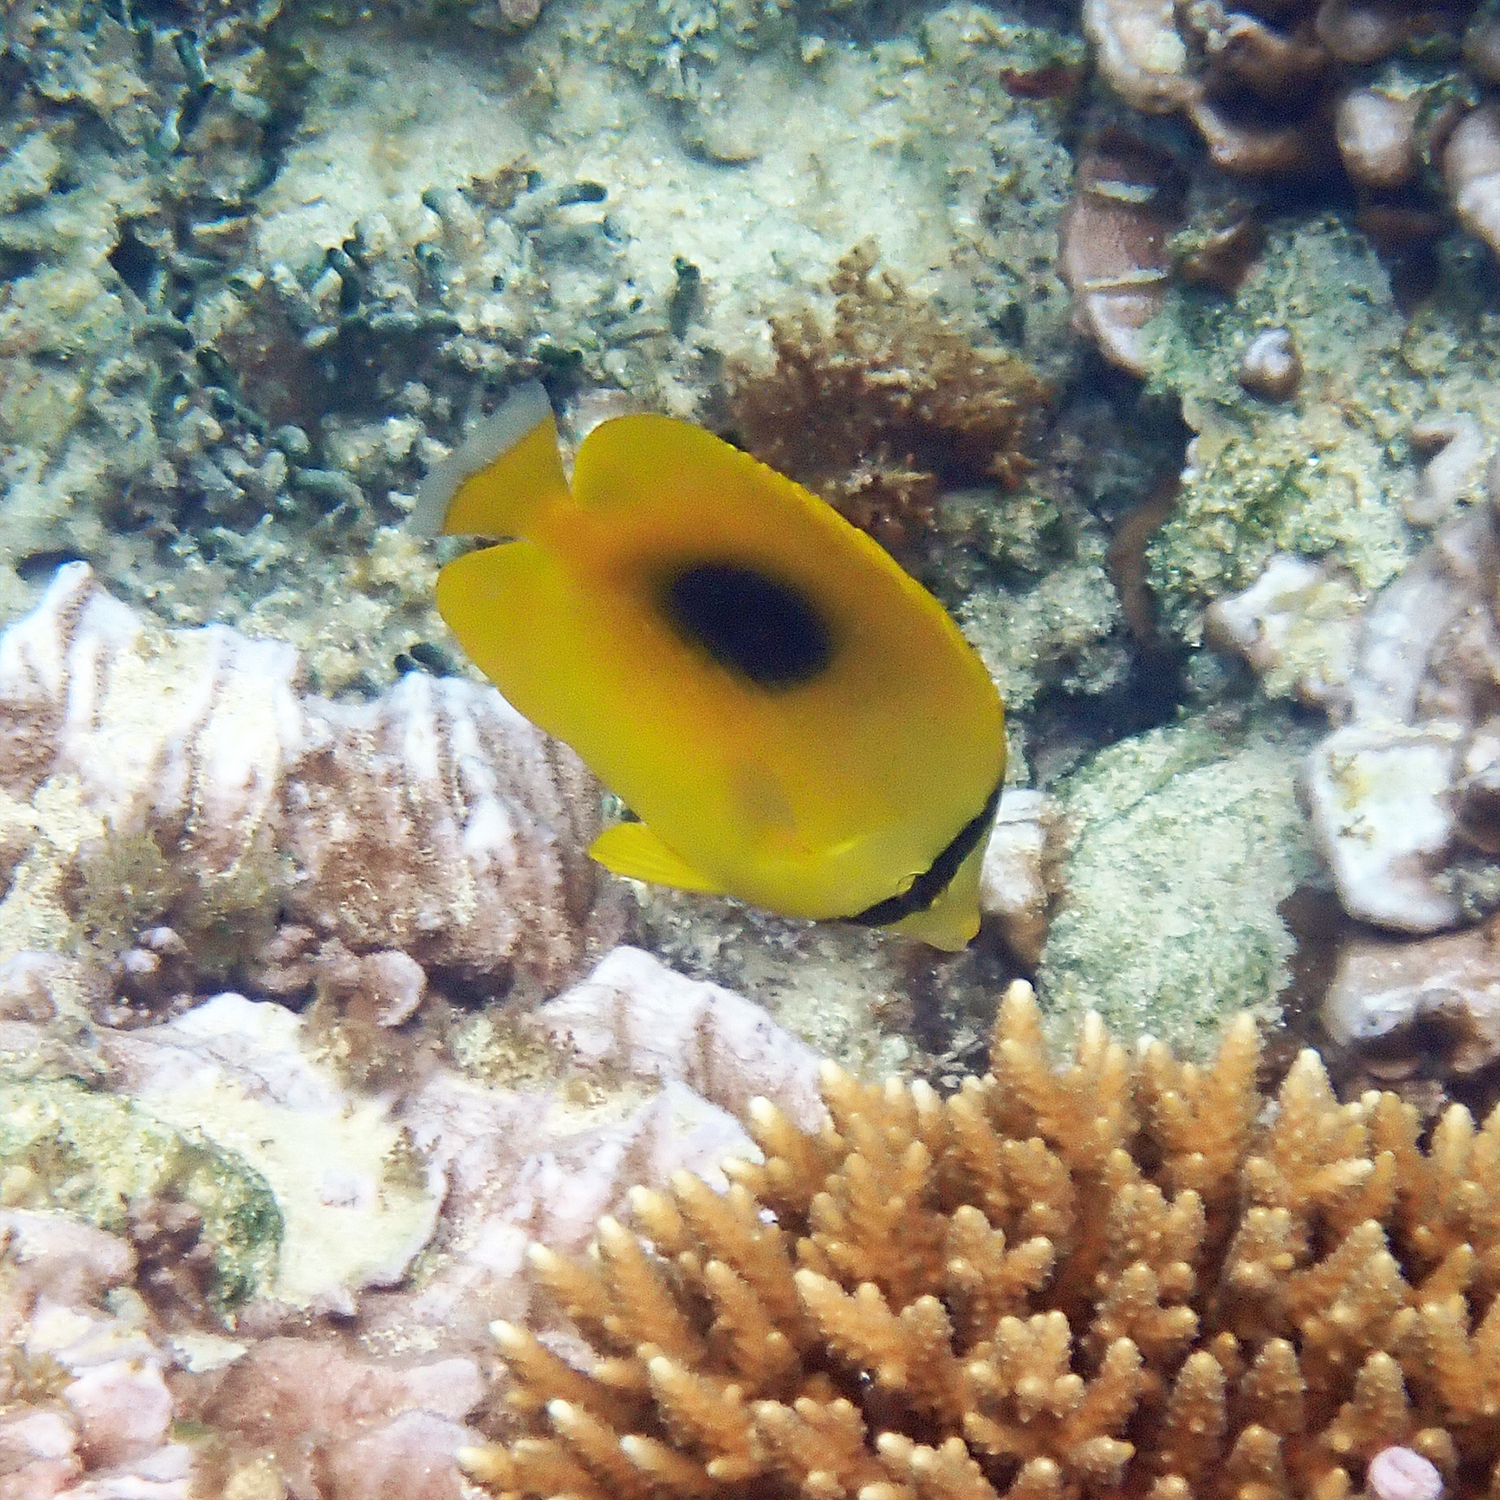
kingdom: Animalia
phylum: Chordata
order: Perciformes
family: Chaetodontidae
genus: Chaetodon
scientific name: Chaetodon speculum
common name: Mirror butterflyfish
